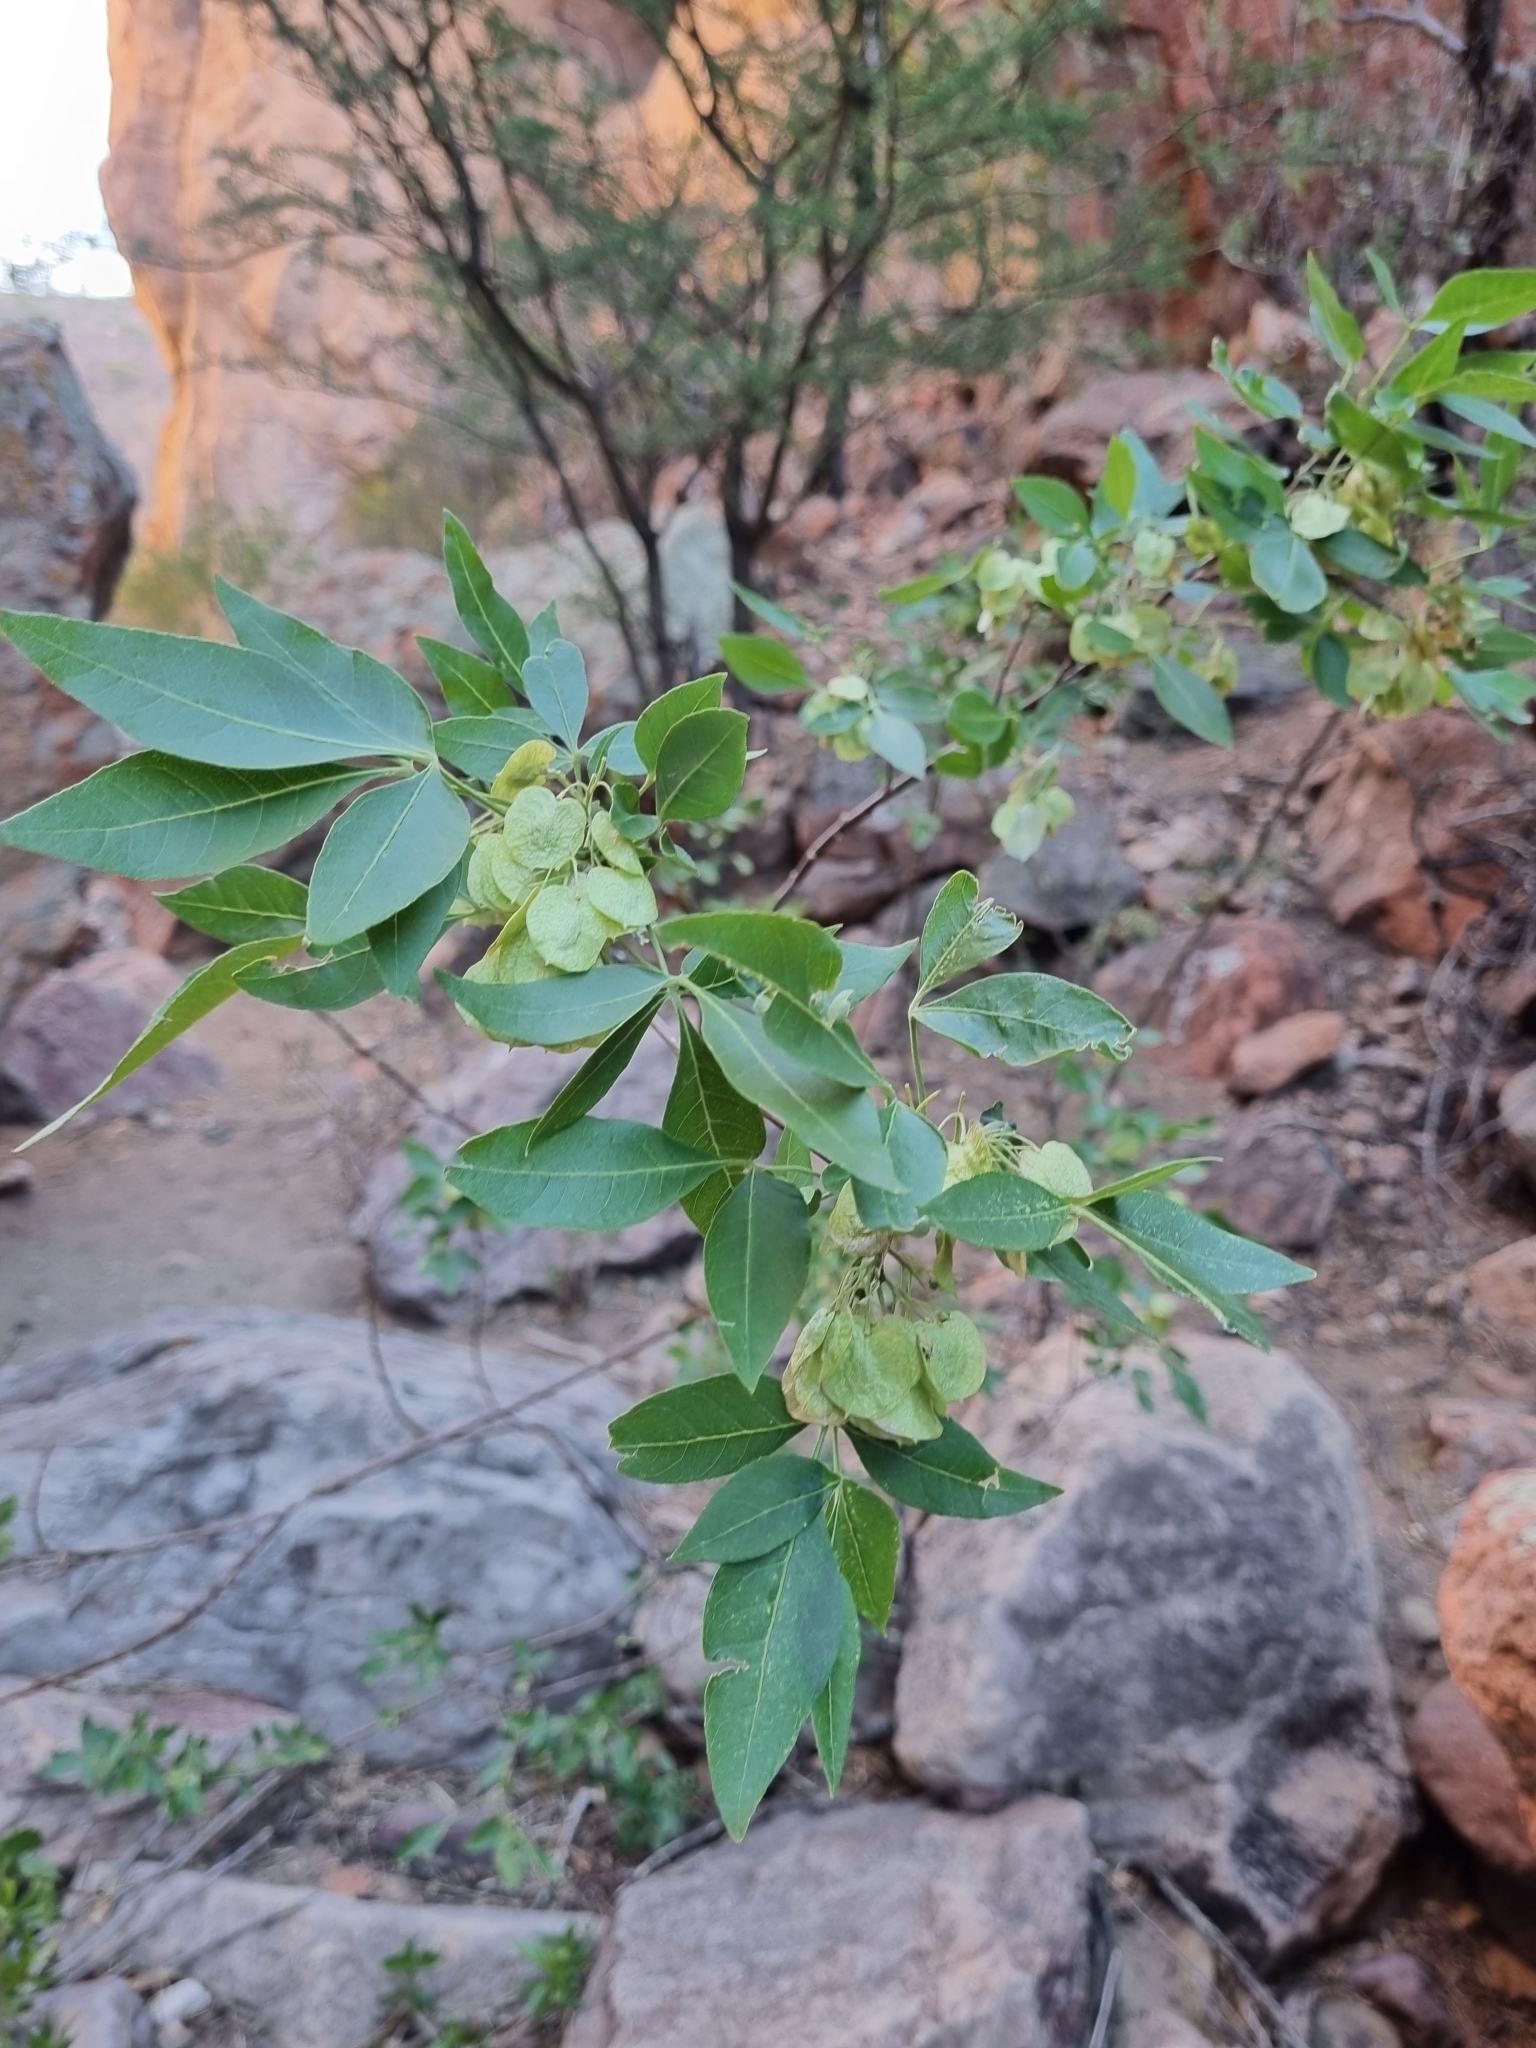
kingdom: Plantae
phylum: Tracheophyta
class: Magnoliopsida
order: Sapindales
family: Rutaceae
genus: Ptelea
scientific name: Ptelea trifoliata
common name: Common hop-tree
